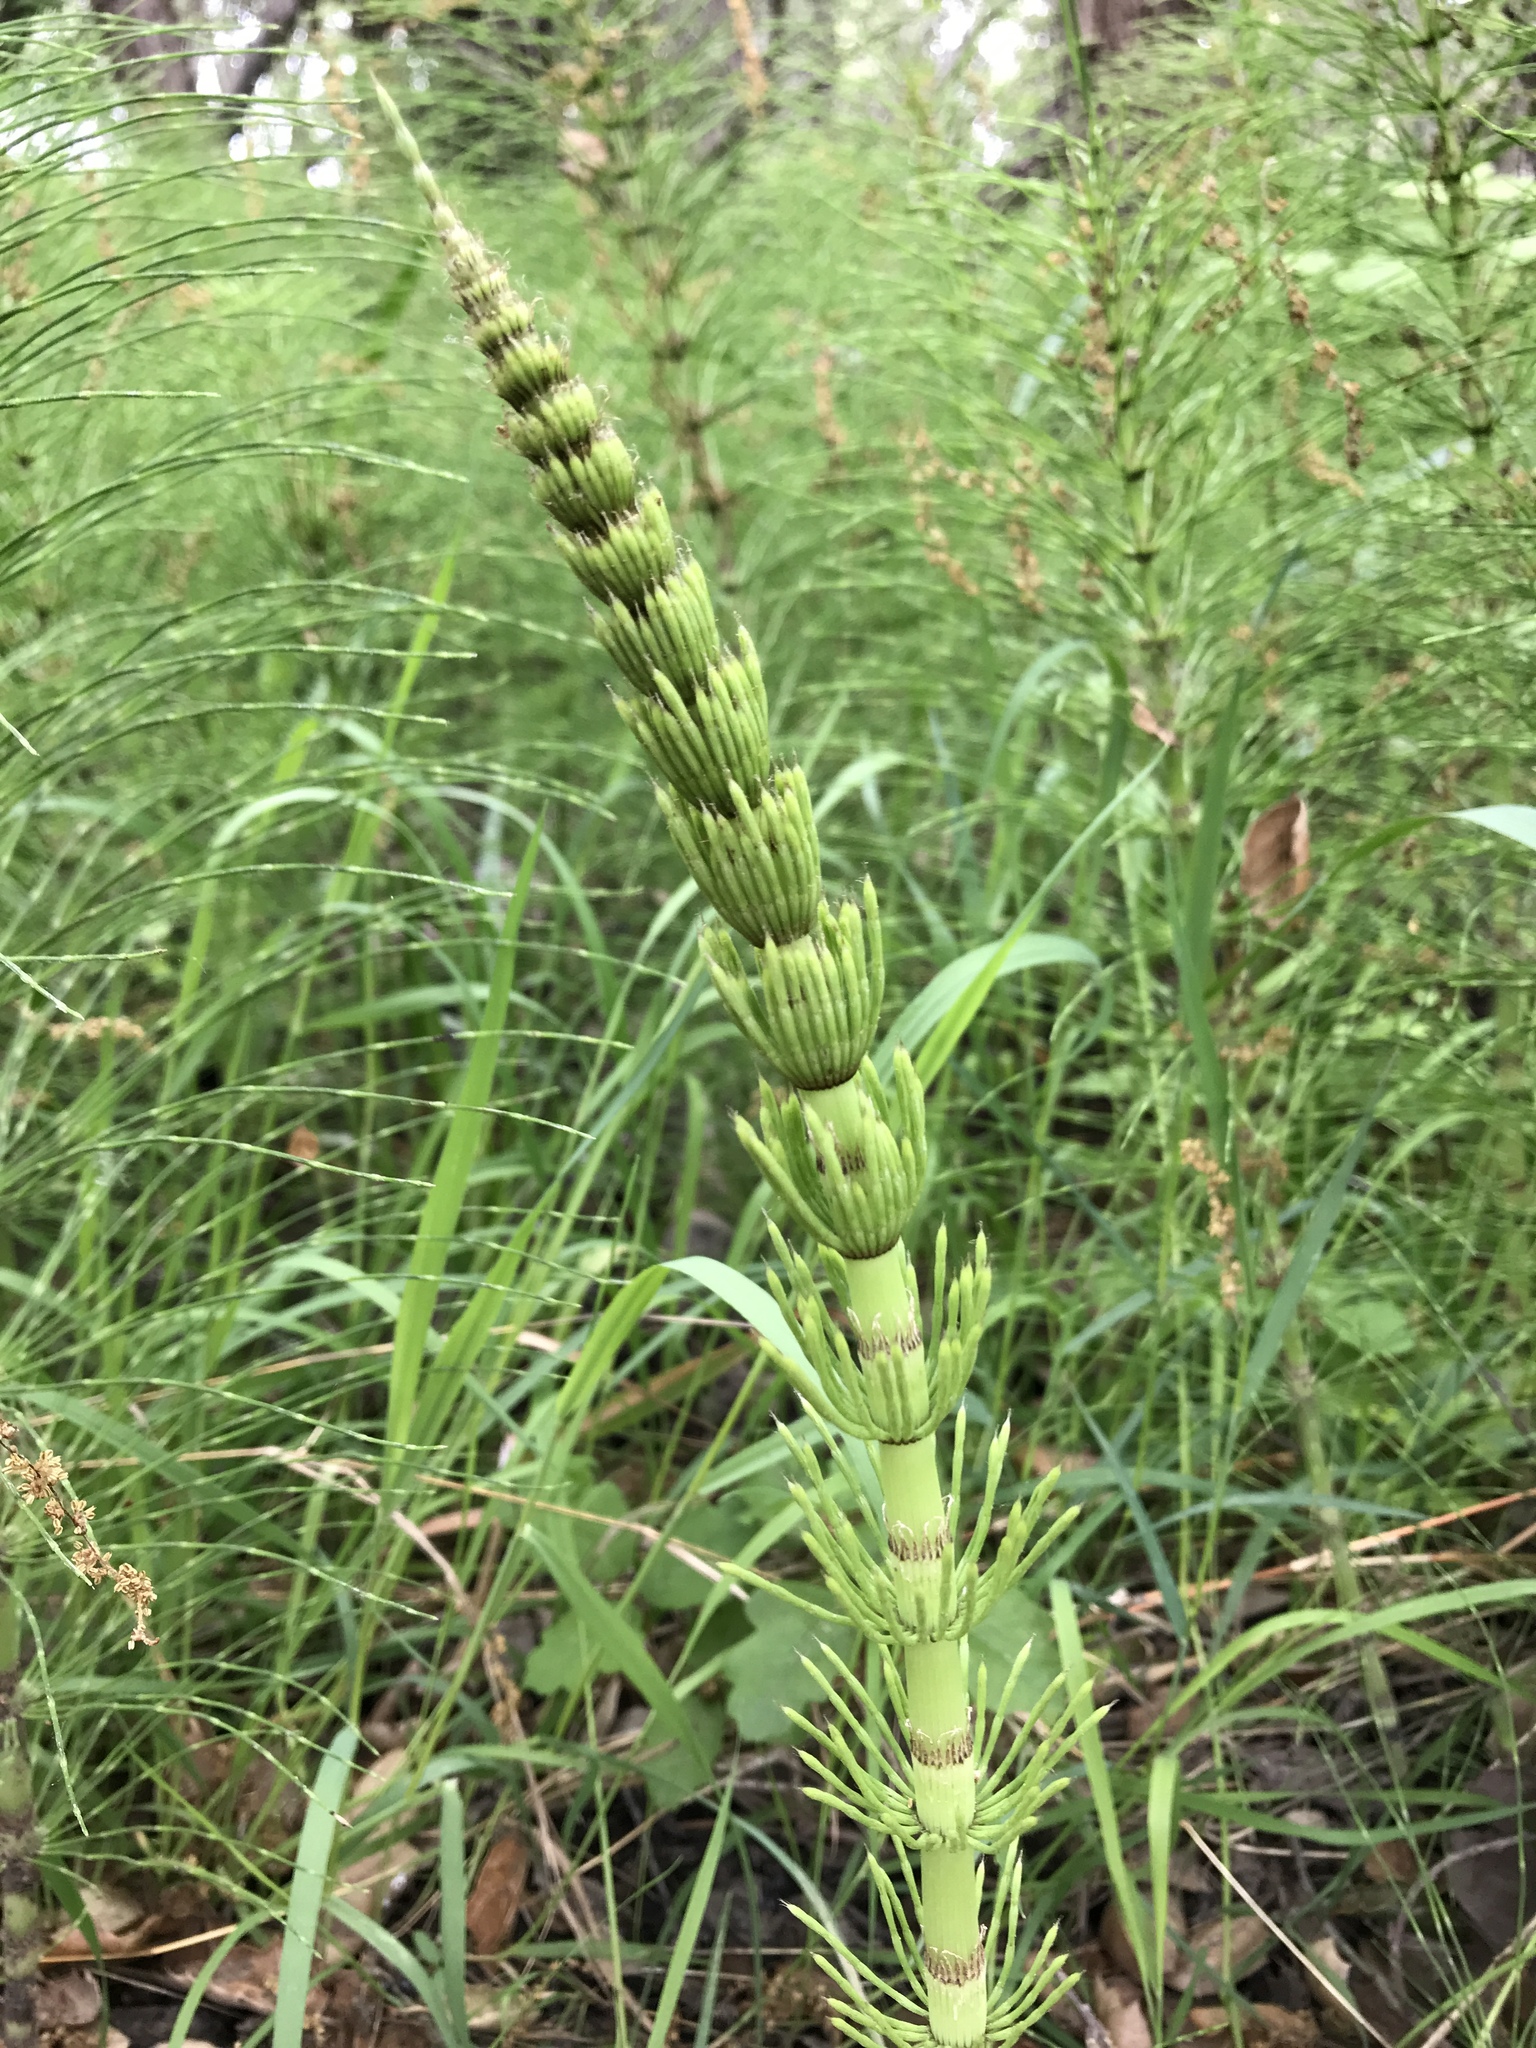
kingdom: Plantae
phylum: Tracheophyta
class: Polypodiopsida
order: Equisetales
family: Equisetaceae
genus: Equisetum
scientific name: Equisetum telmateia
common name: Great horsetail
